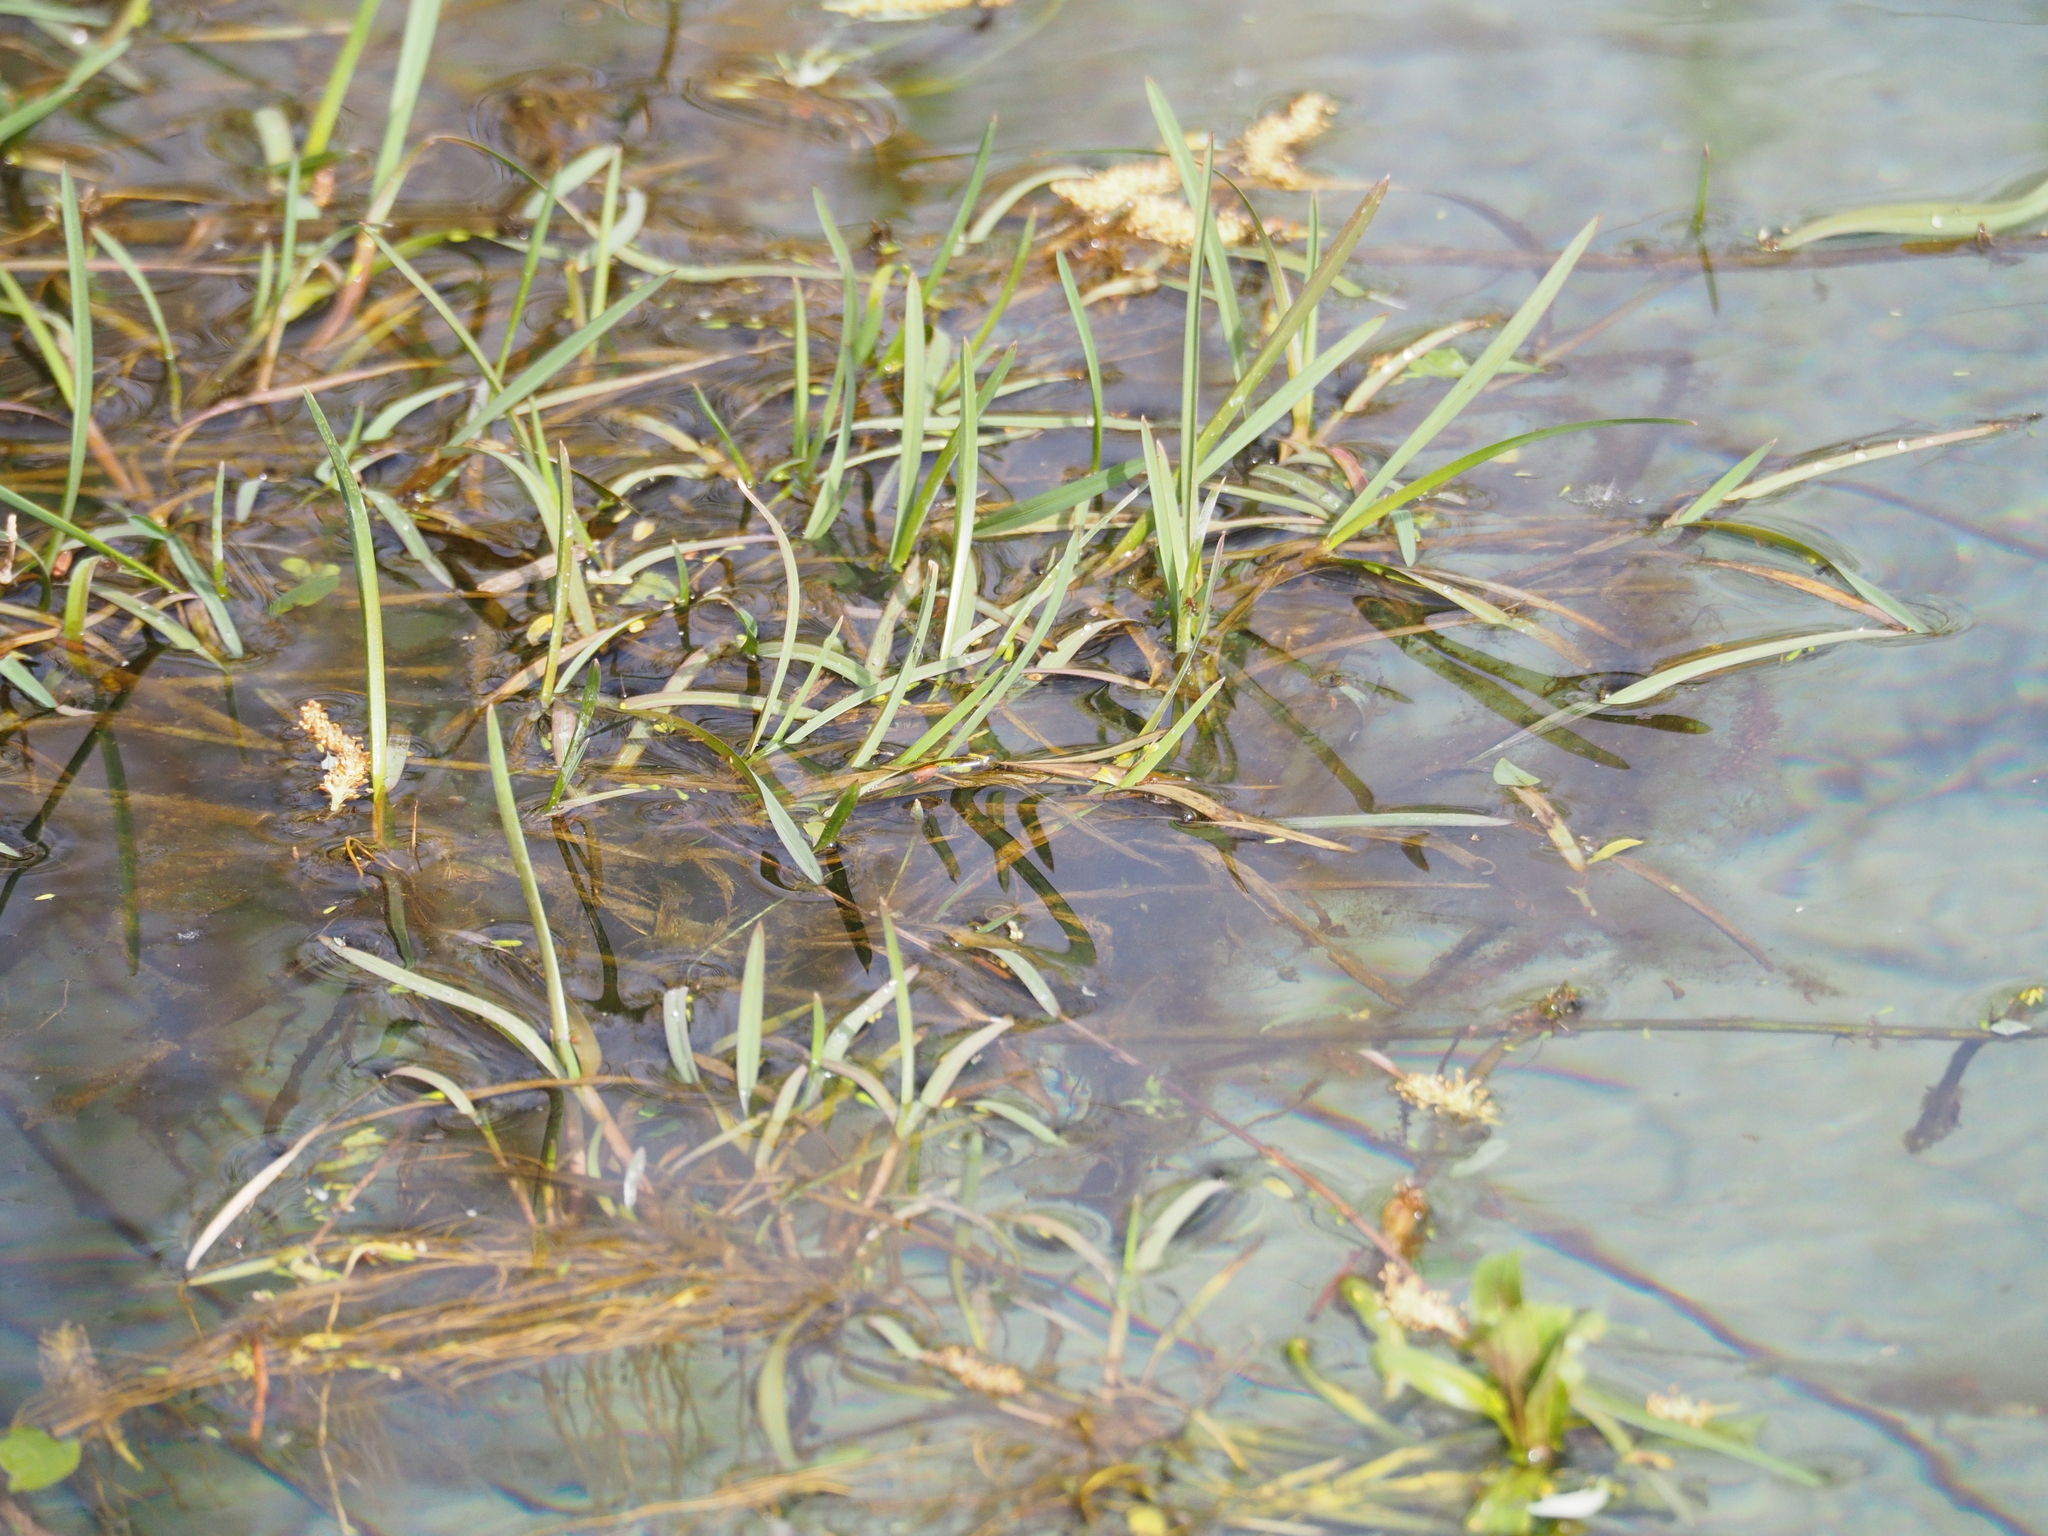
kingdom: Plantae
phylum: Tracheophyta
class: Liliopsida
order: Poales
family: Poaceae
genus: Glyceria
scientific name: Glyceria fluitans
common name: Floating sweet-grass
